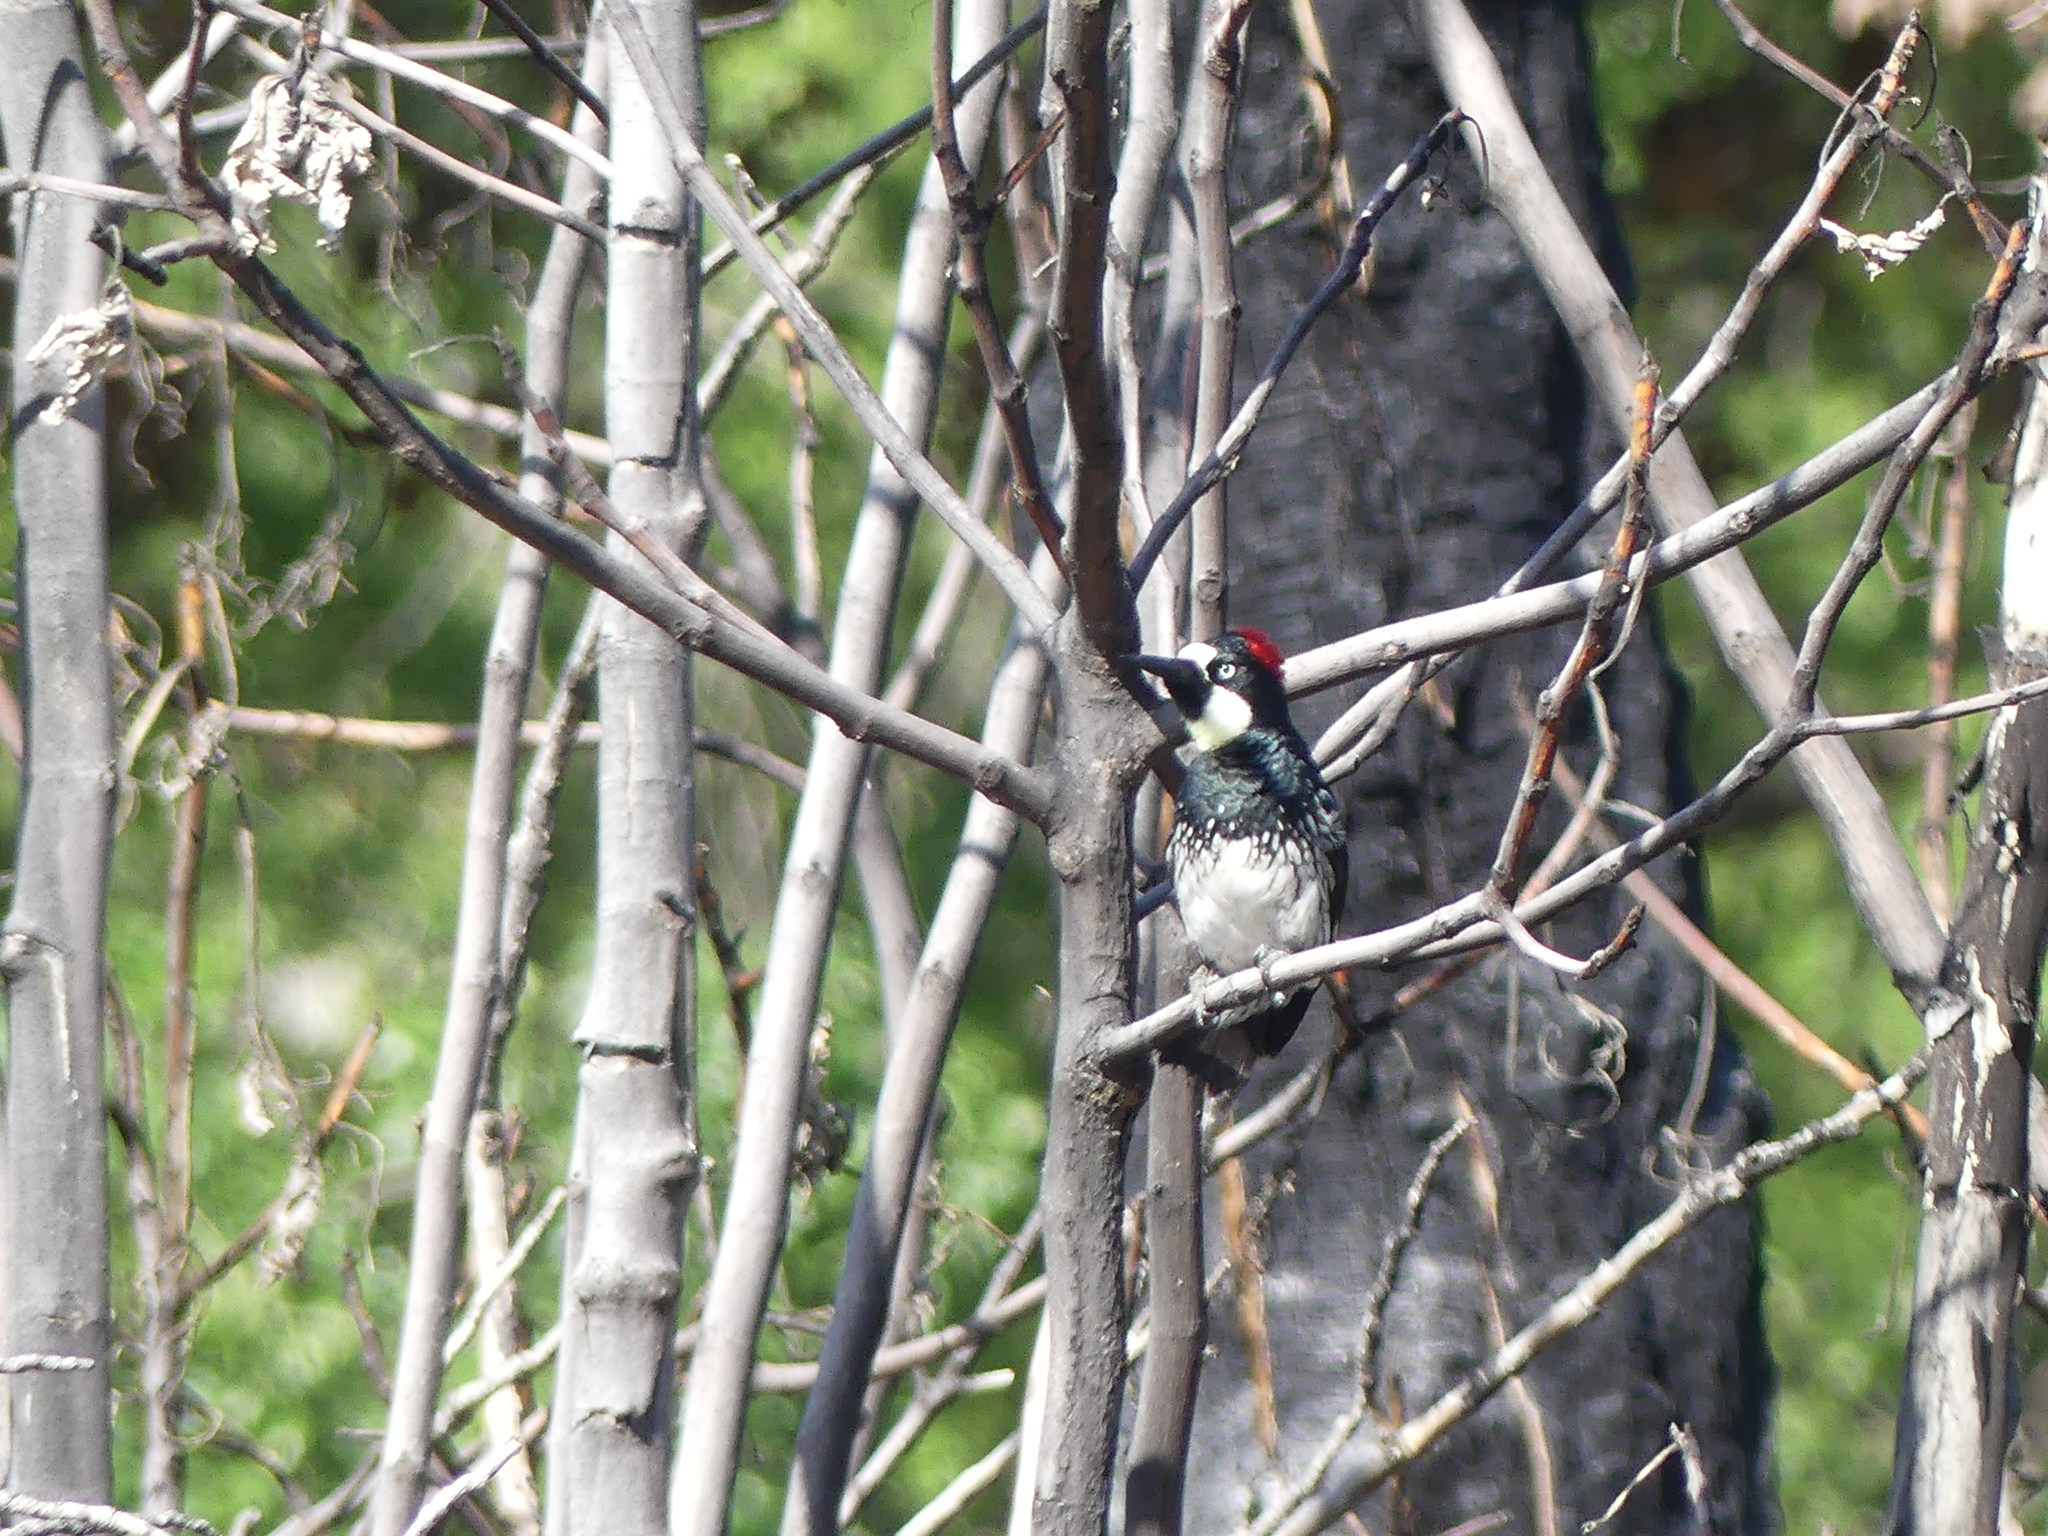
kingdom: Animalia
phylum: Chordata
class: Aves
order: Piciformes
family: Picidae
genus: Melanerpes
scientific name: Melanerpes formicivorus
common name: Acorn woodpecker
